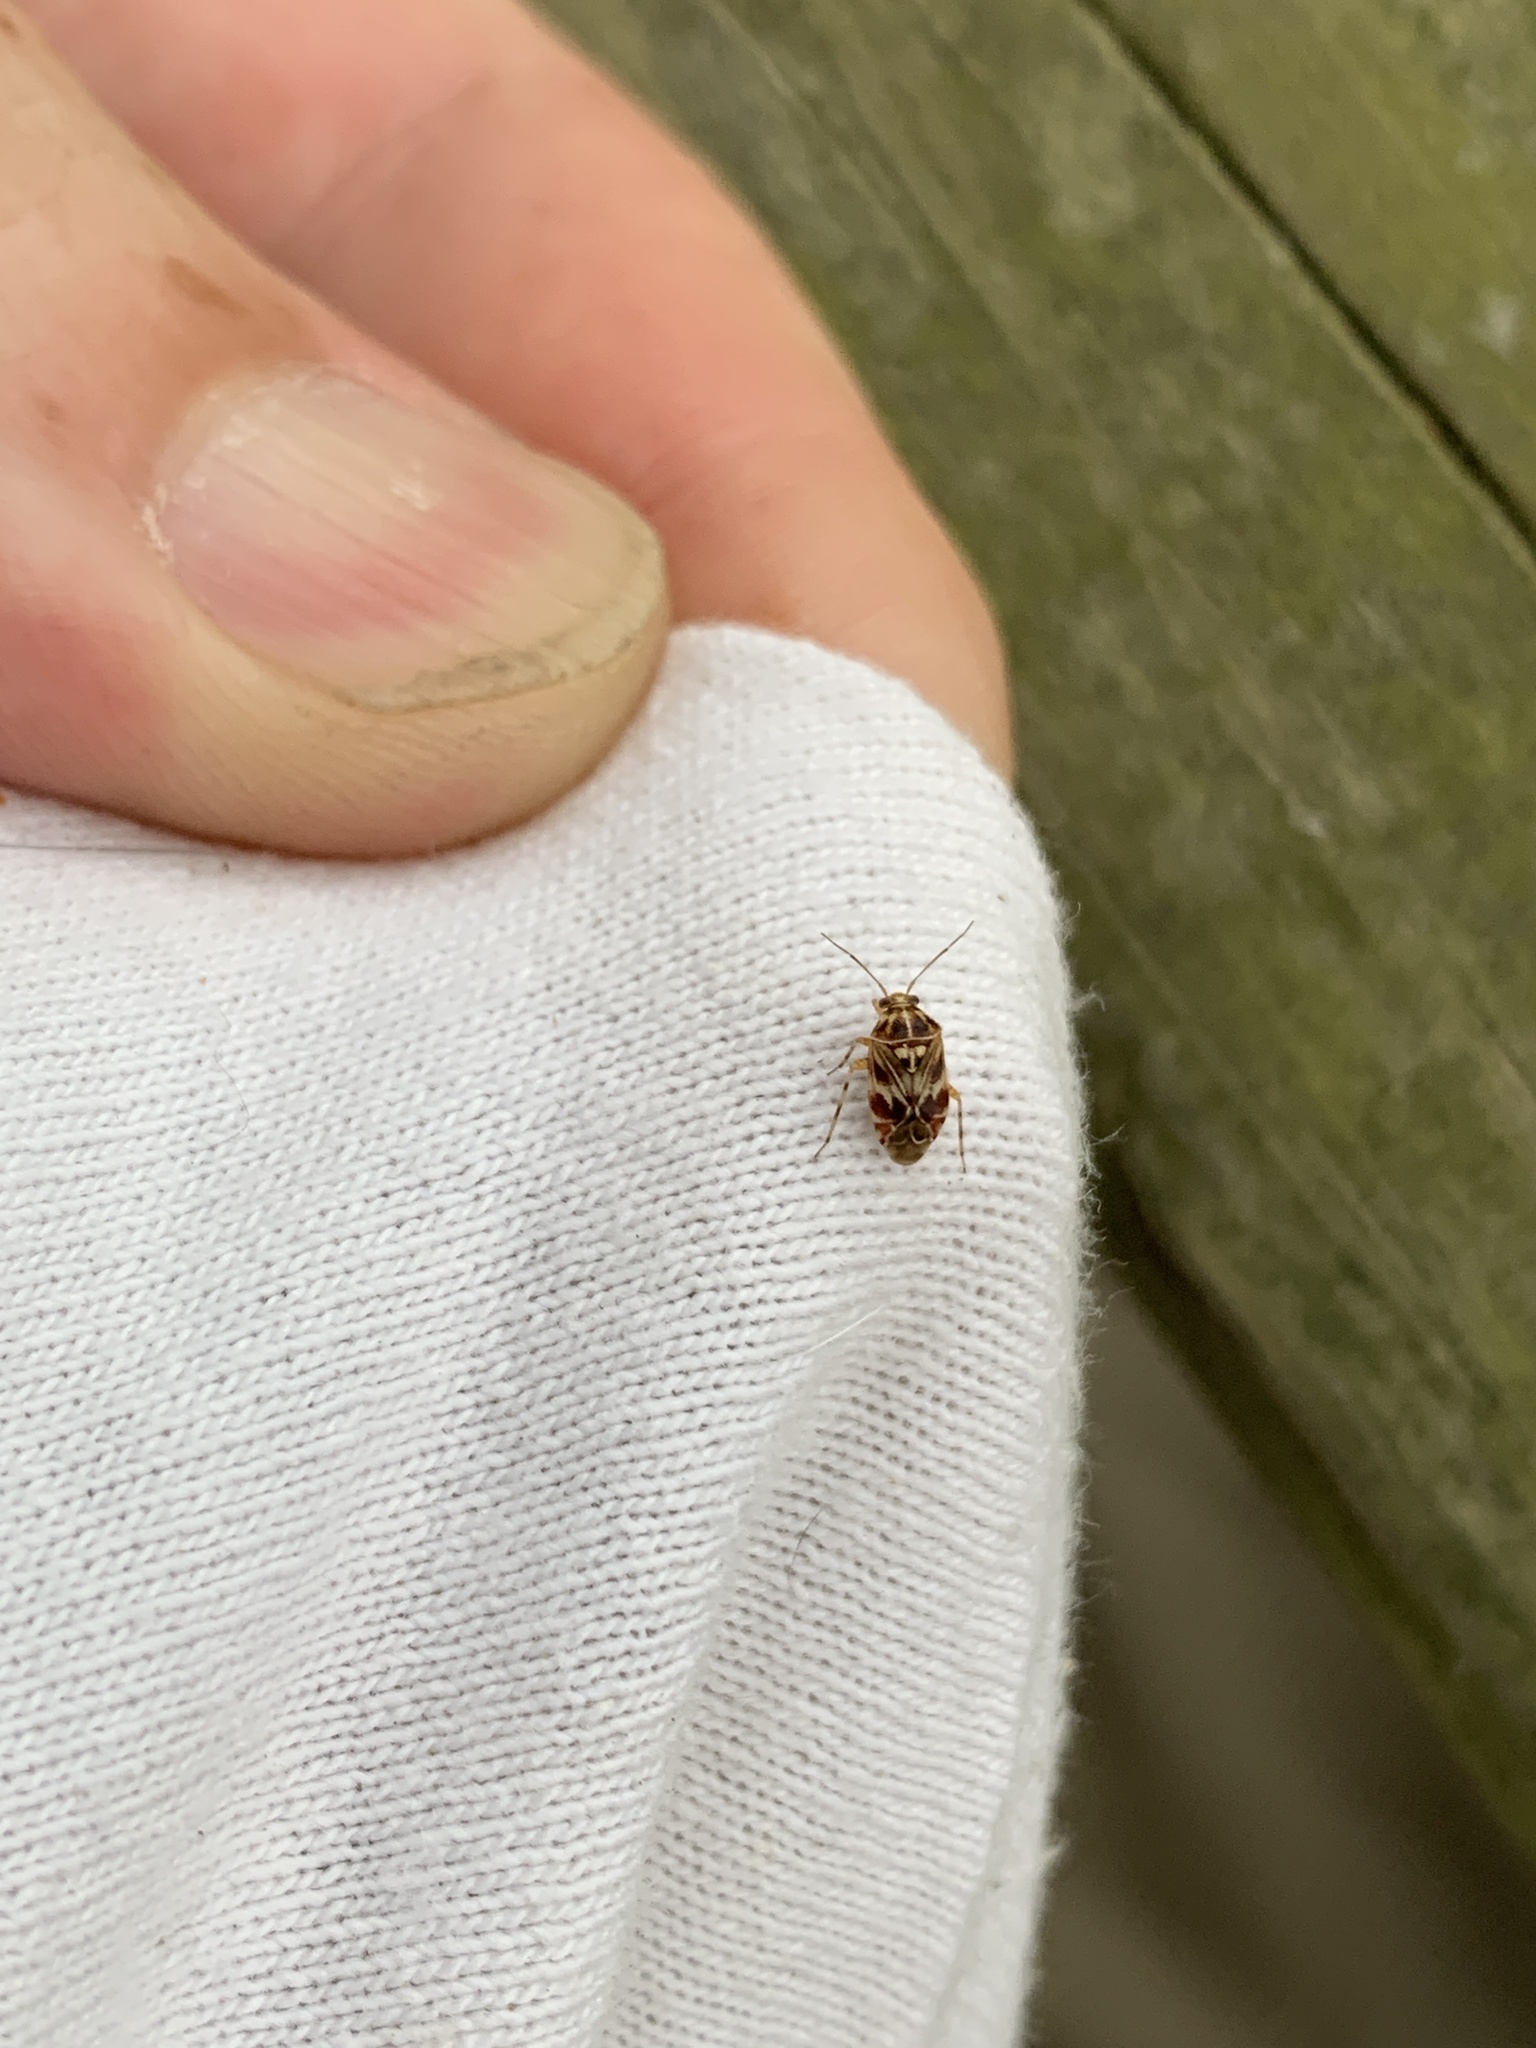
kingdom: Animalia
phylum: Arthropoda
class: Insecta
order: Hemiptera
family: Miridae
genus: Tropidosteptes
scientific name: Tropidosteptes quercicola
